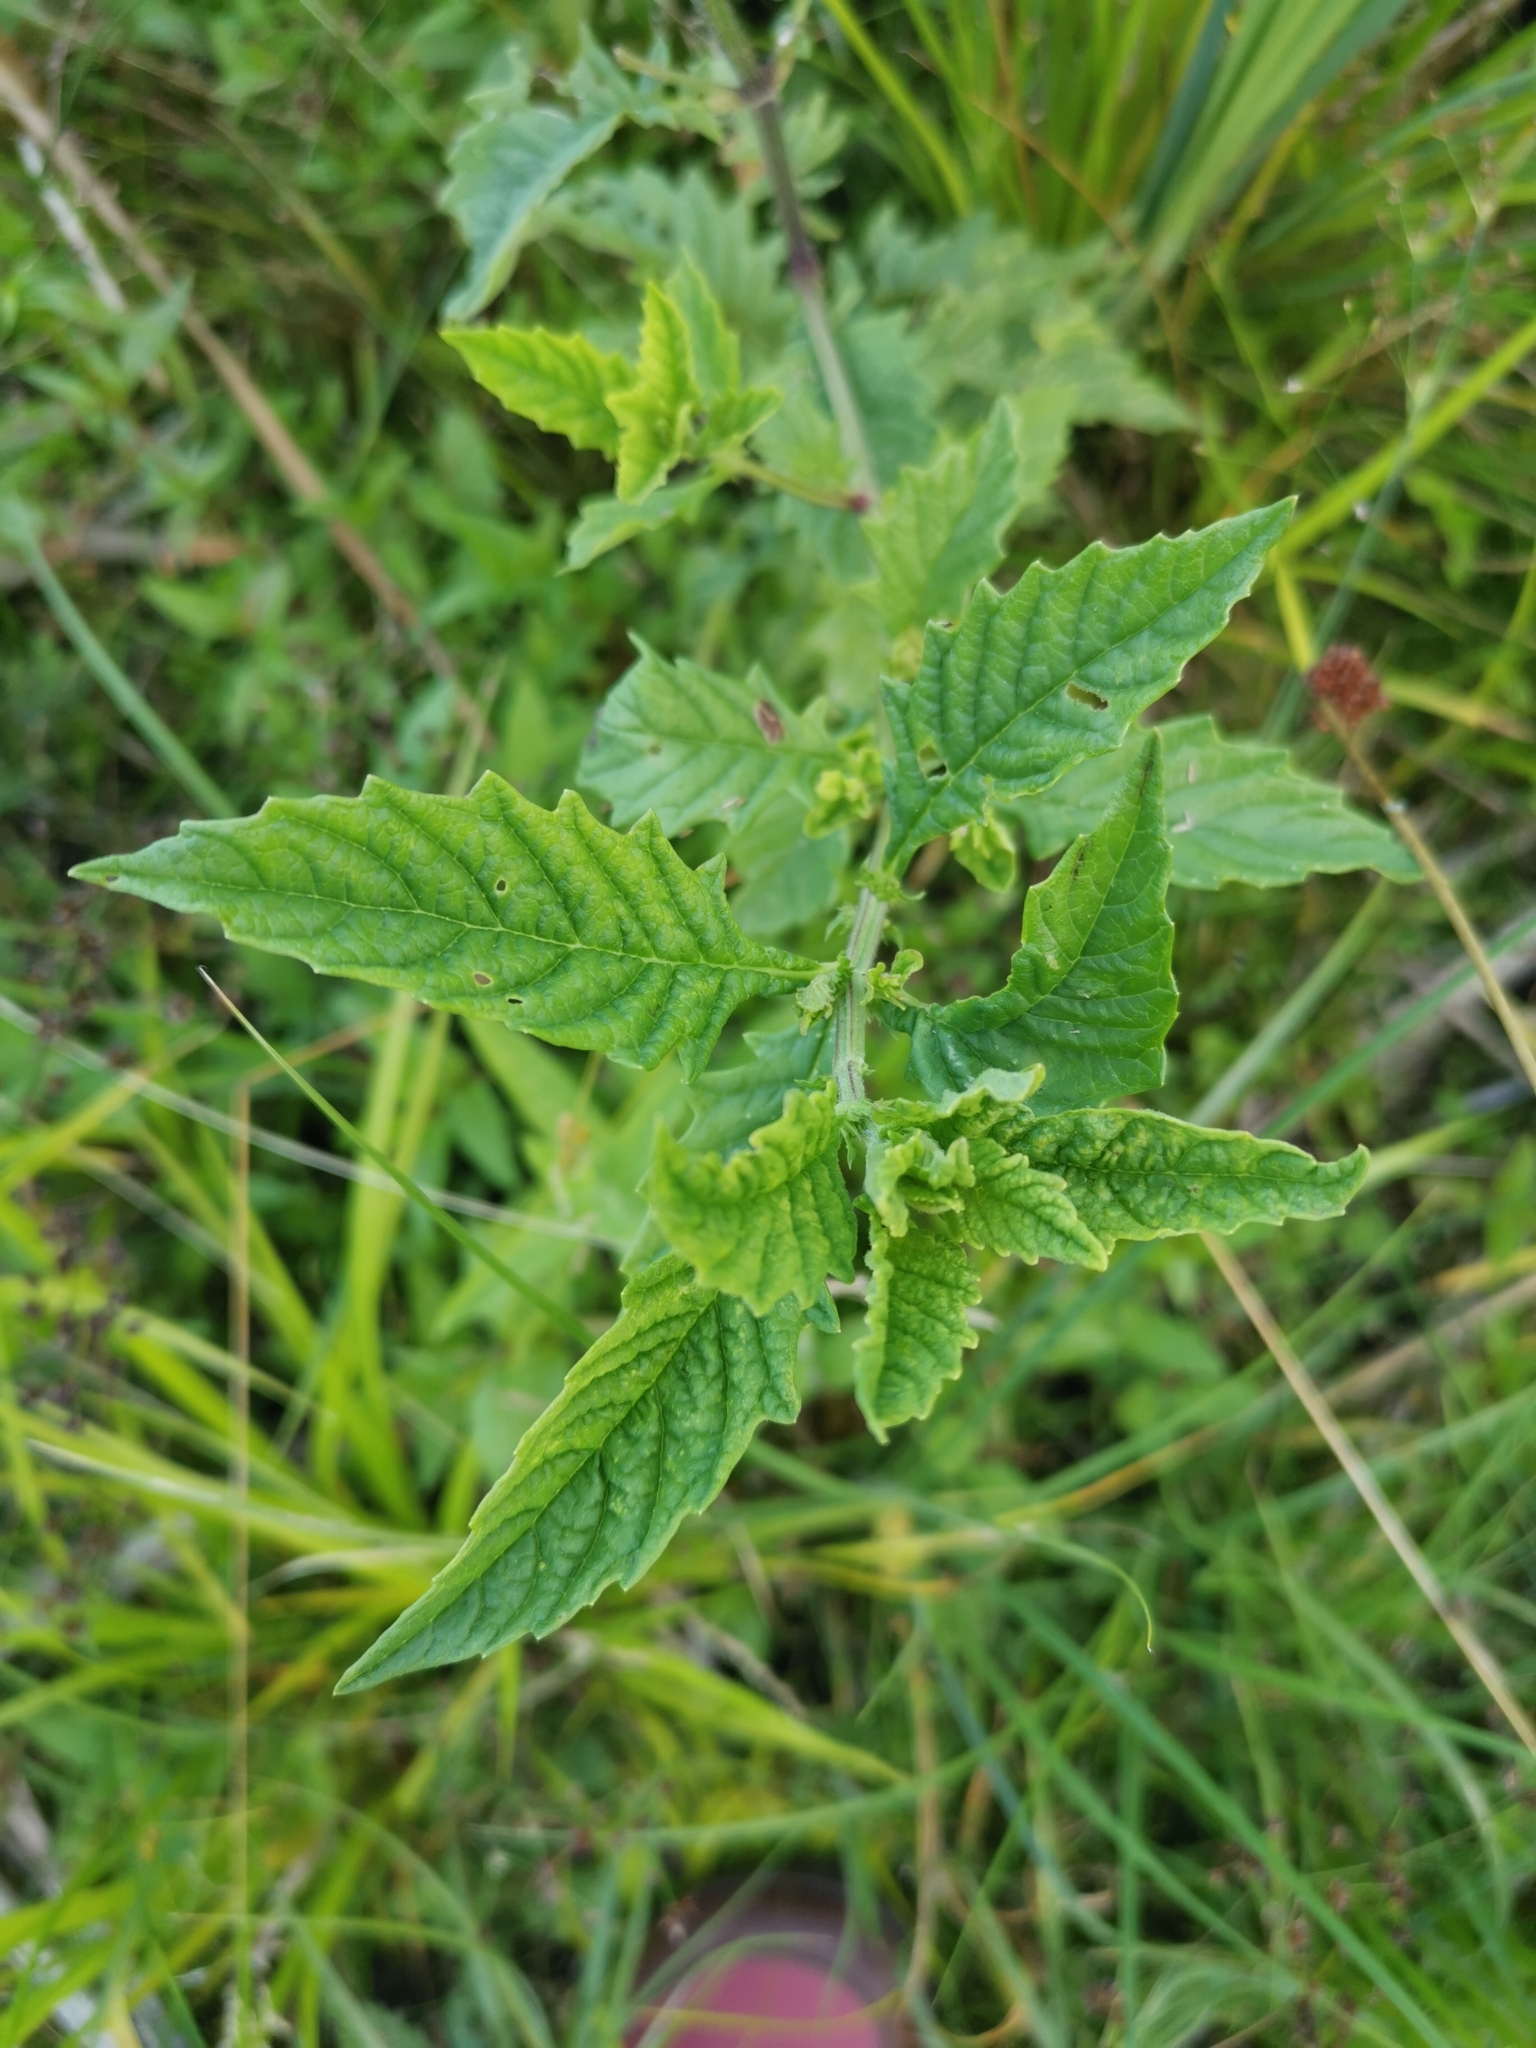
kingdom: Plantae
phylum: Tracheophyta
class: Magnoliopsida
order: Lamiales
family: Lamiaceae
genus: Lycopus
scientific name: Lycopus europaeus
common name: European bugleweed
